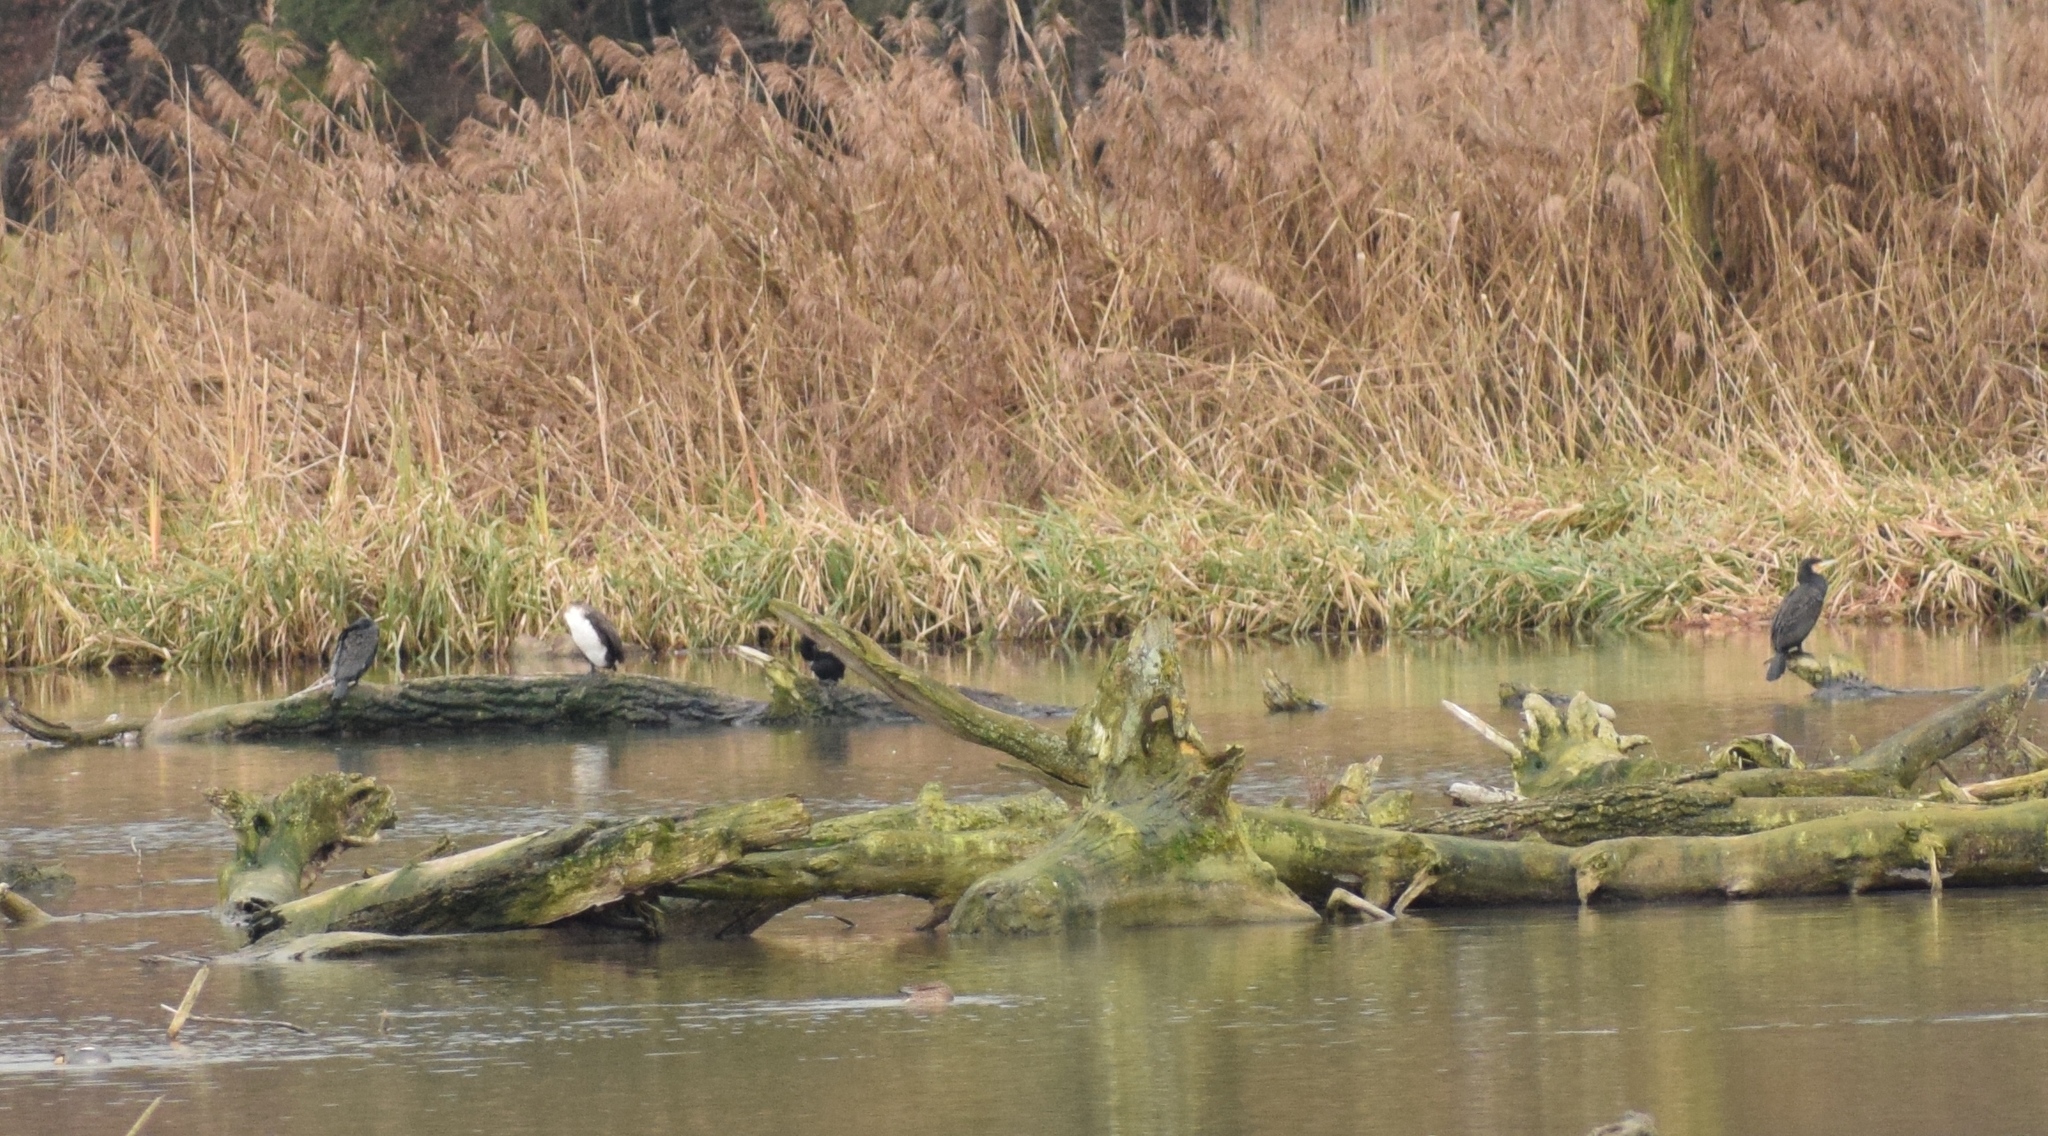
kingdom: Animalia
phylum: Chordata
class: Aves
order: Suliformes
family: Phalacrocoracidae
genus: Phalacrocorax
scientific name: Phalacrocorax carbo
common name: Great cormorant
